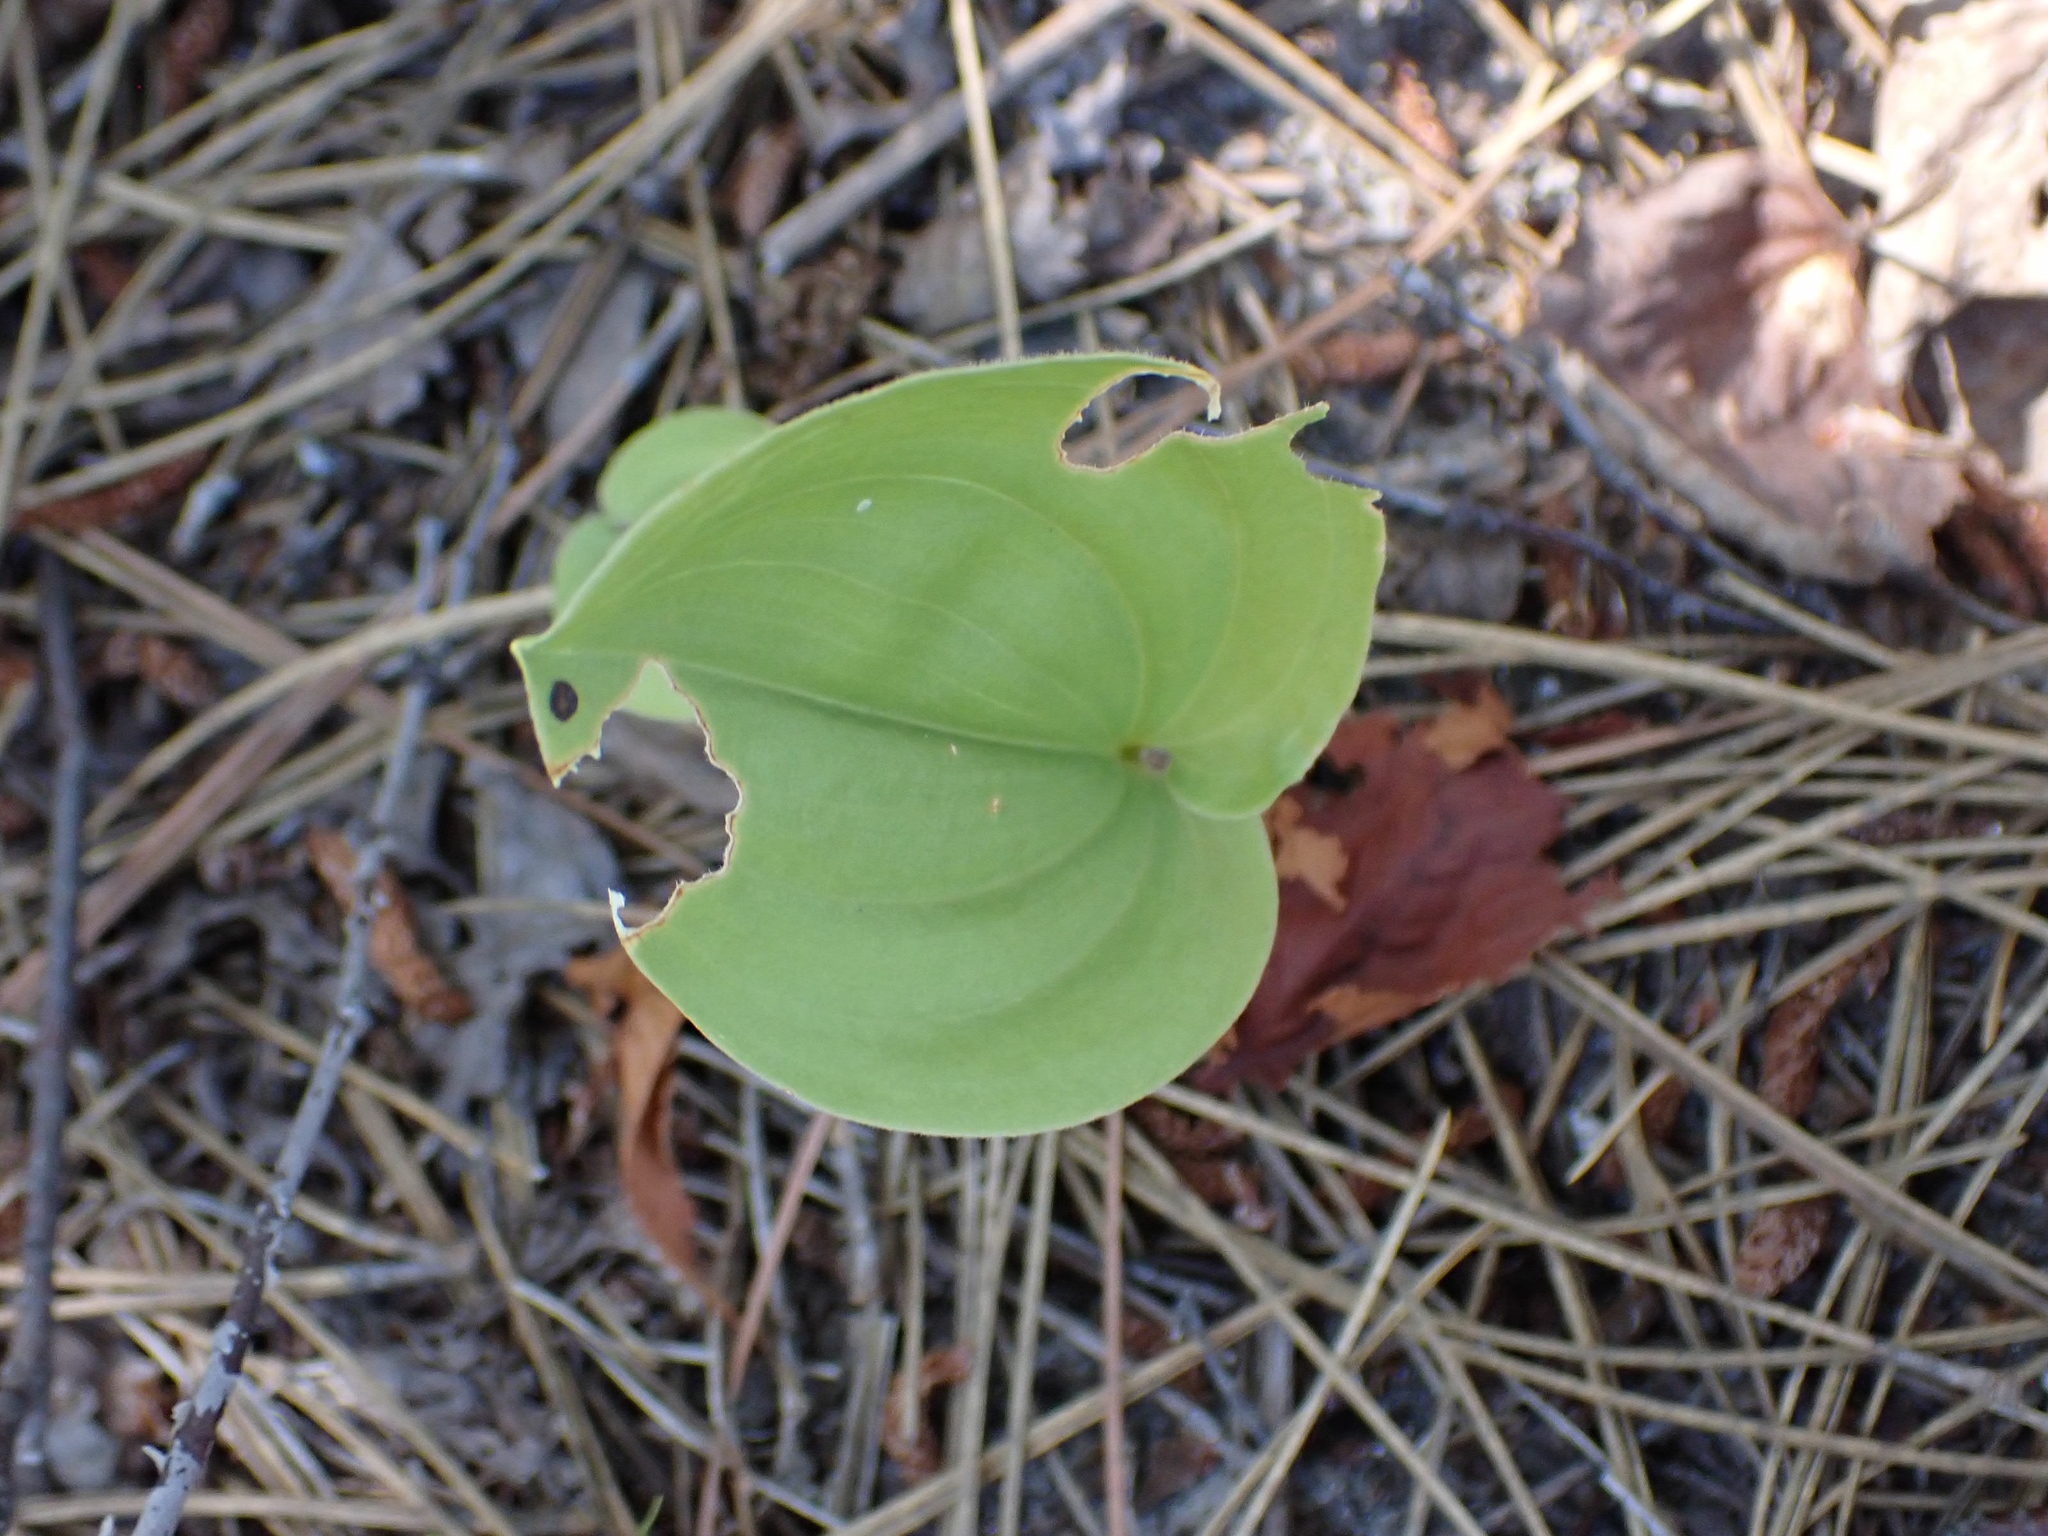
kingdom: Plantae
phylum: Tracheophyta
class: Liliopsida
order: Asparagales
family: Asparagaceae
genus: Maianthemum
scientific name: Maianthemum canadense
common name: False lily-of-the-valley
